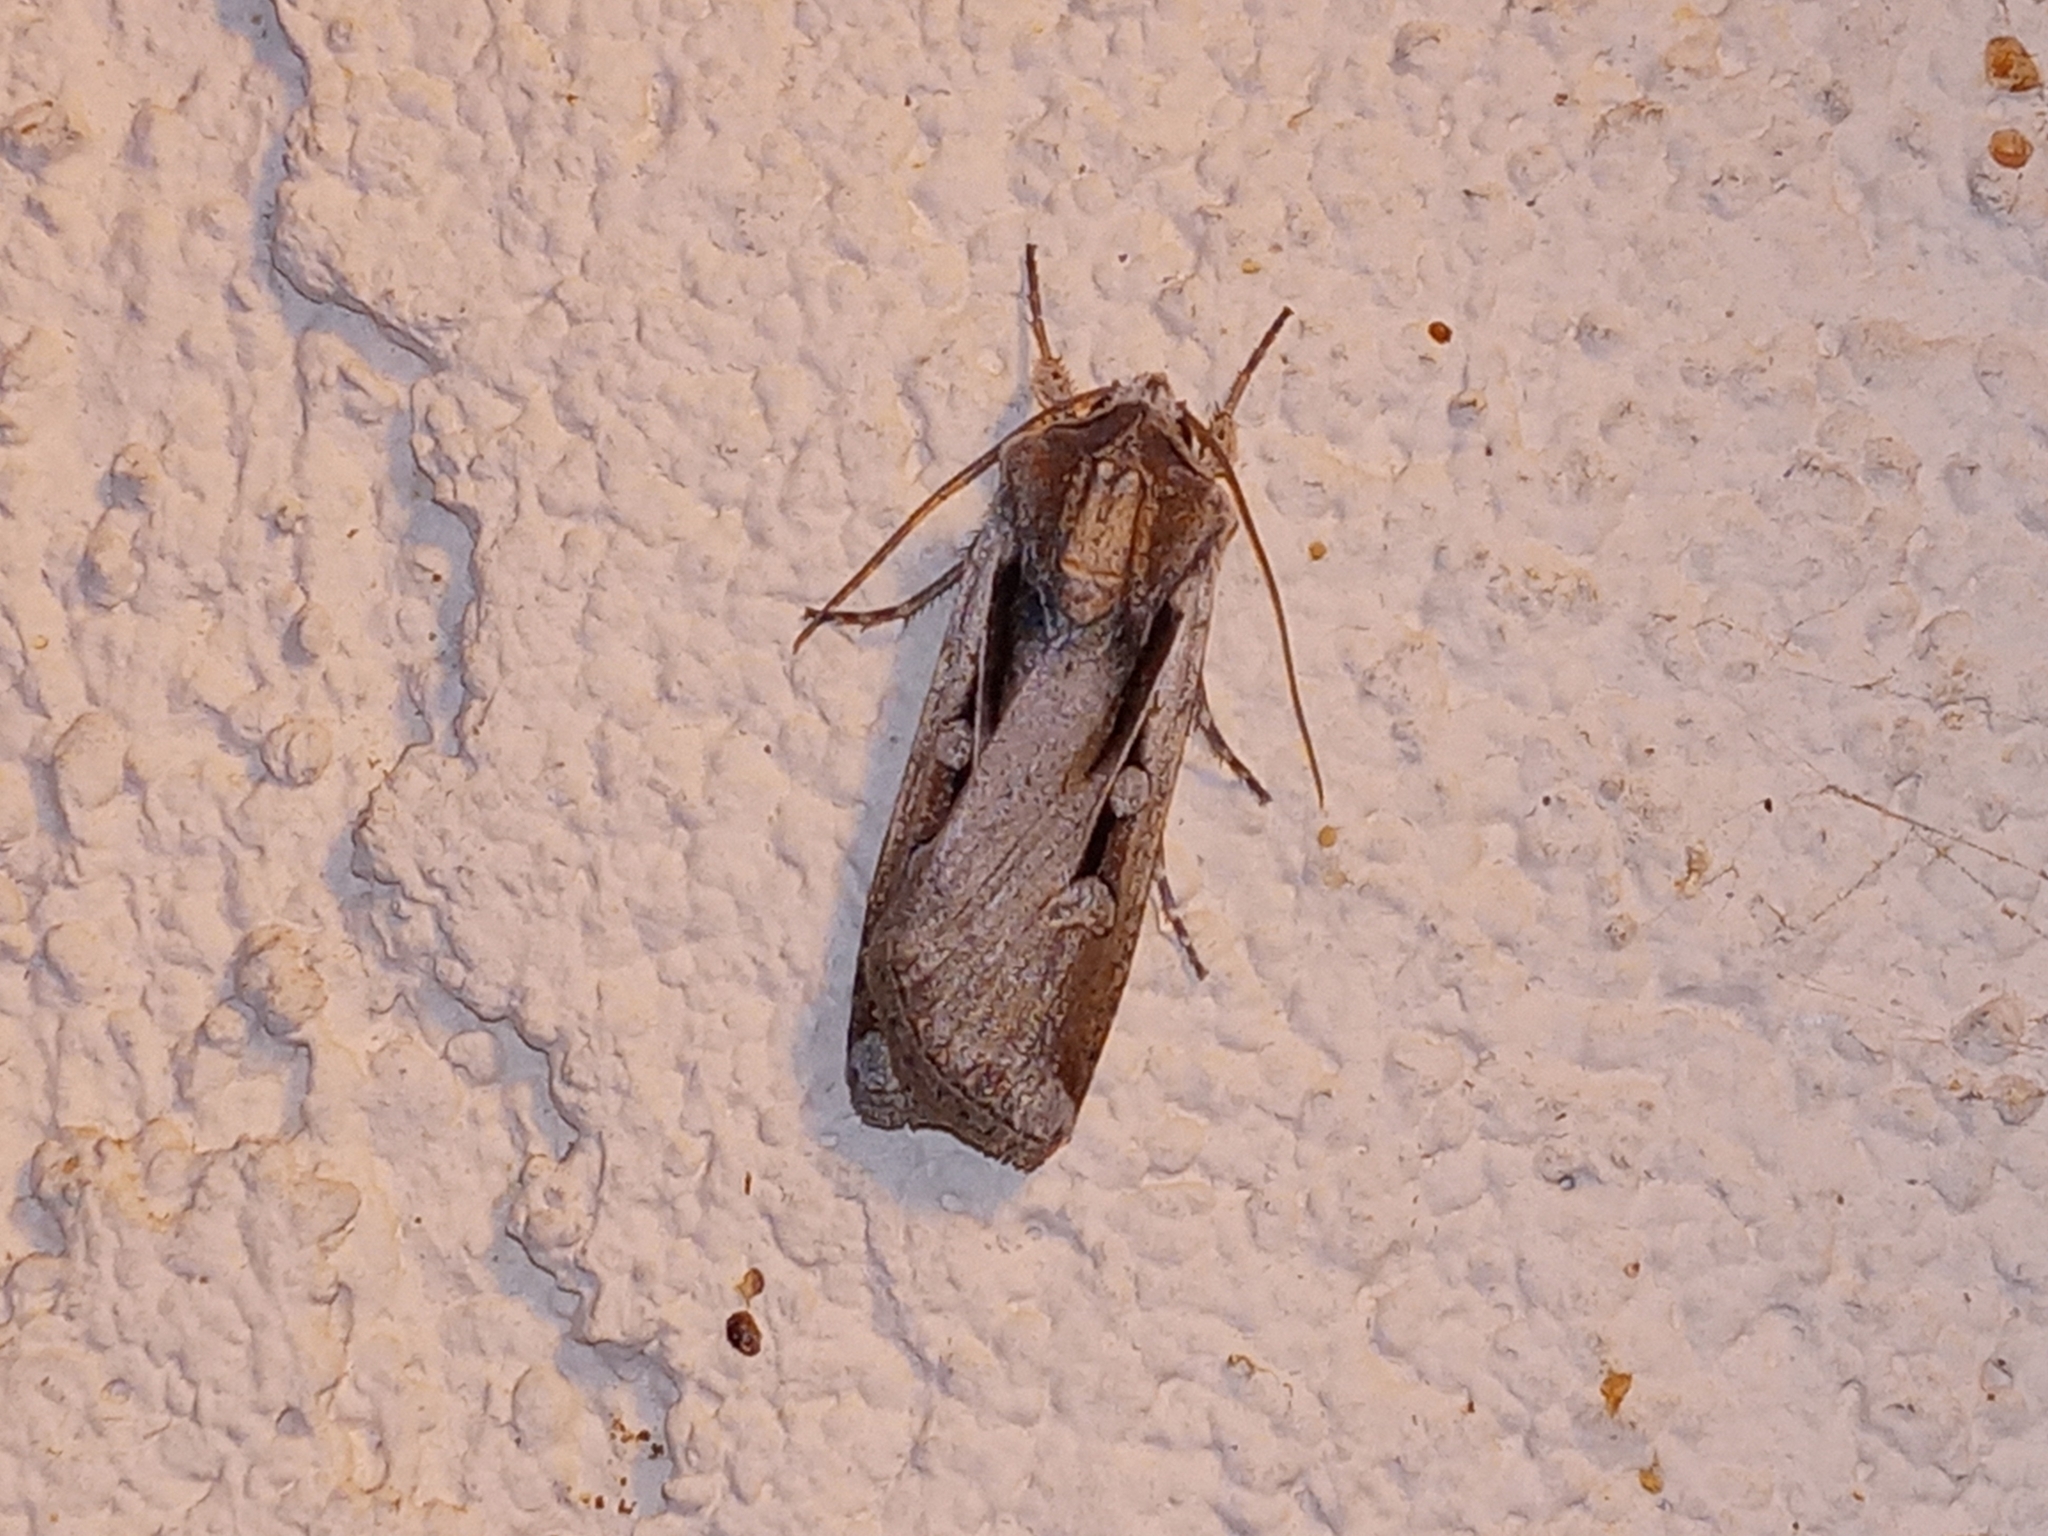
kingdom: Animalia
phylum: Arthropoda
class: Insecta
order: Lepidoptera
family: Noctuidae
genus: Hemieuxoa
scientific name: Hemieuxoa rudens
